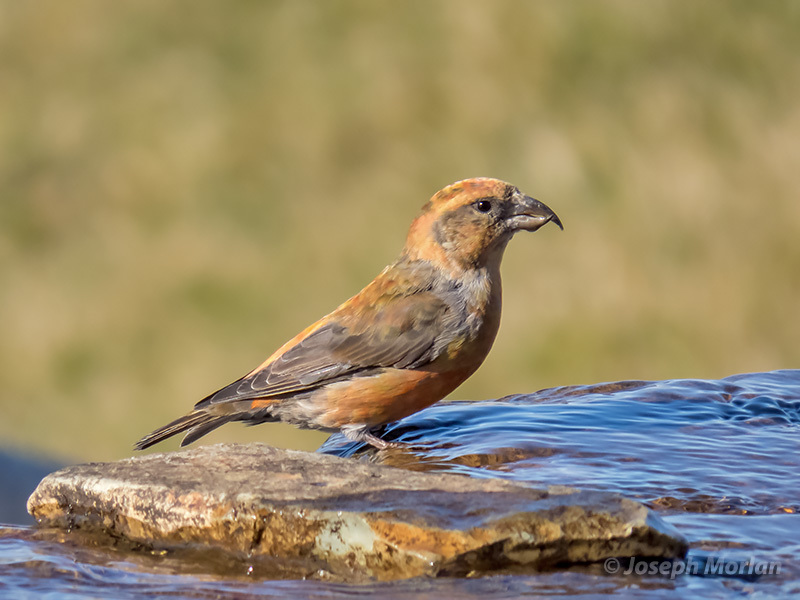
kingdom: Animalia
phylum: Chordata
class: Aves
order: Passeriformes
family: Fringillidae
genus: Loxia
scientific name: Loxia curvirostra
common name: Red crossbill
